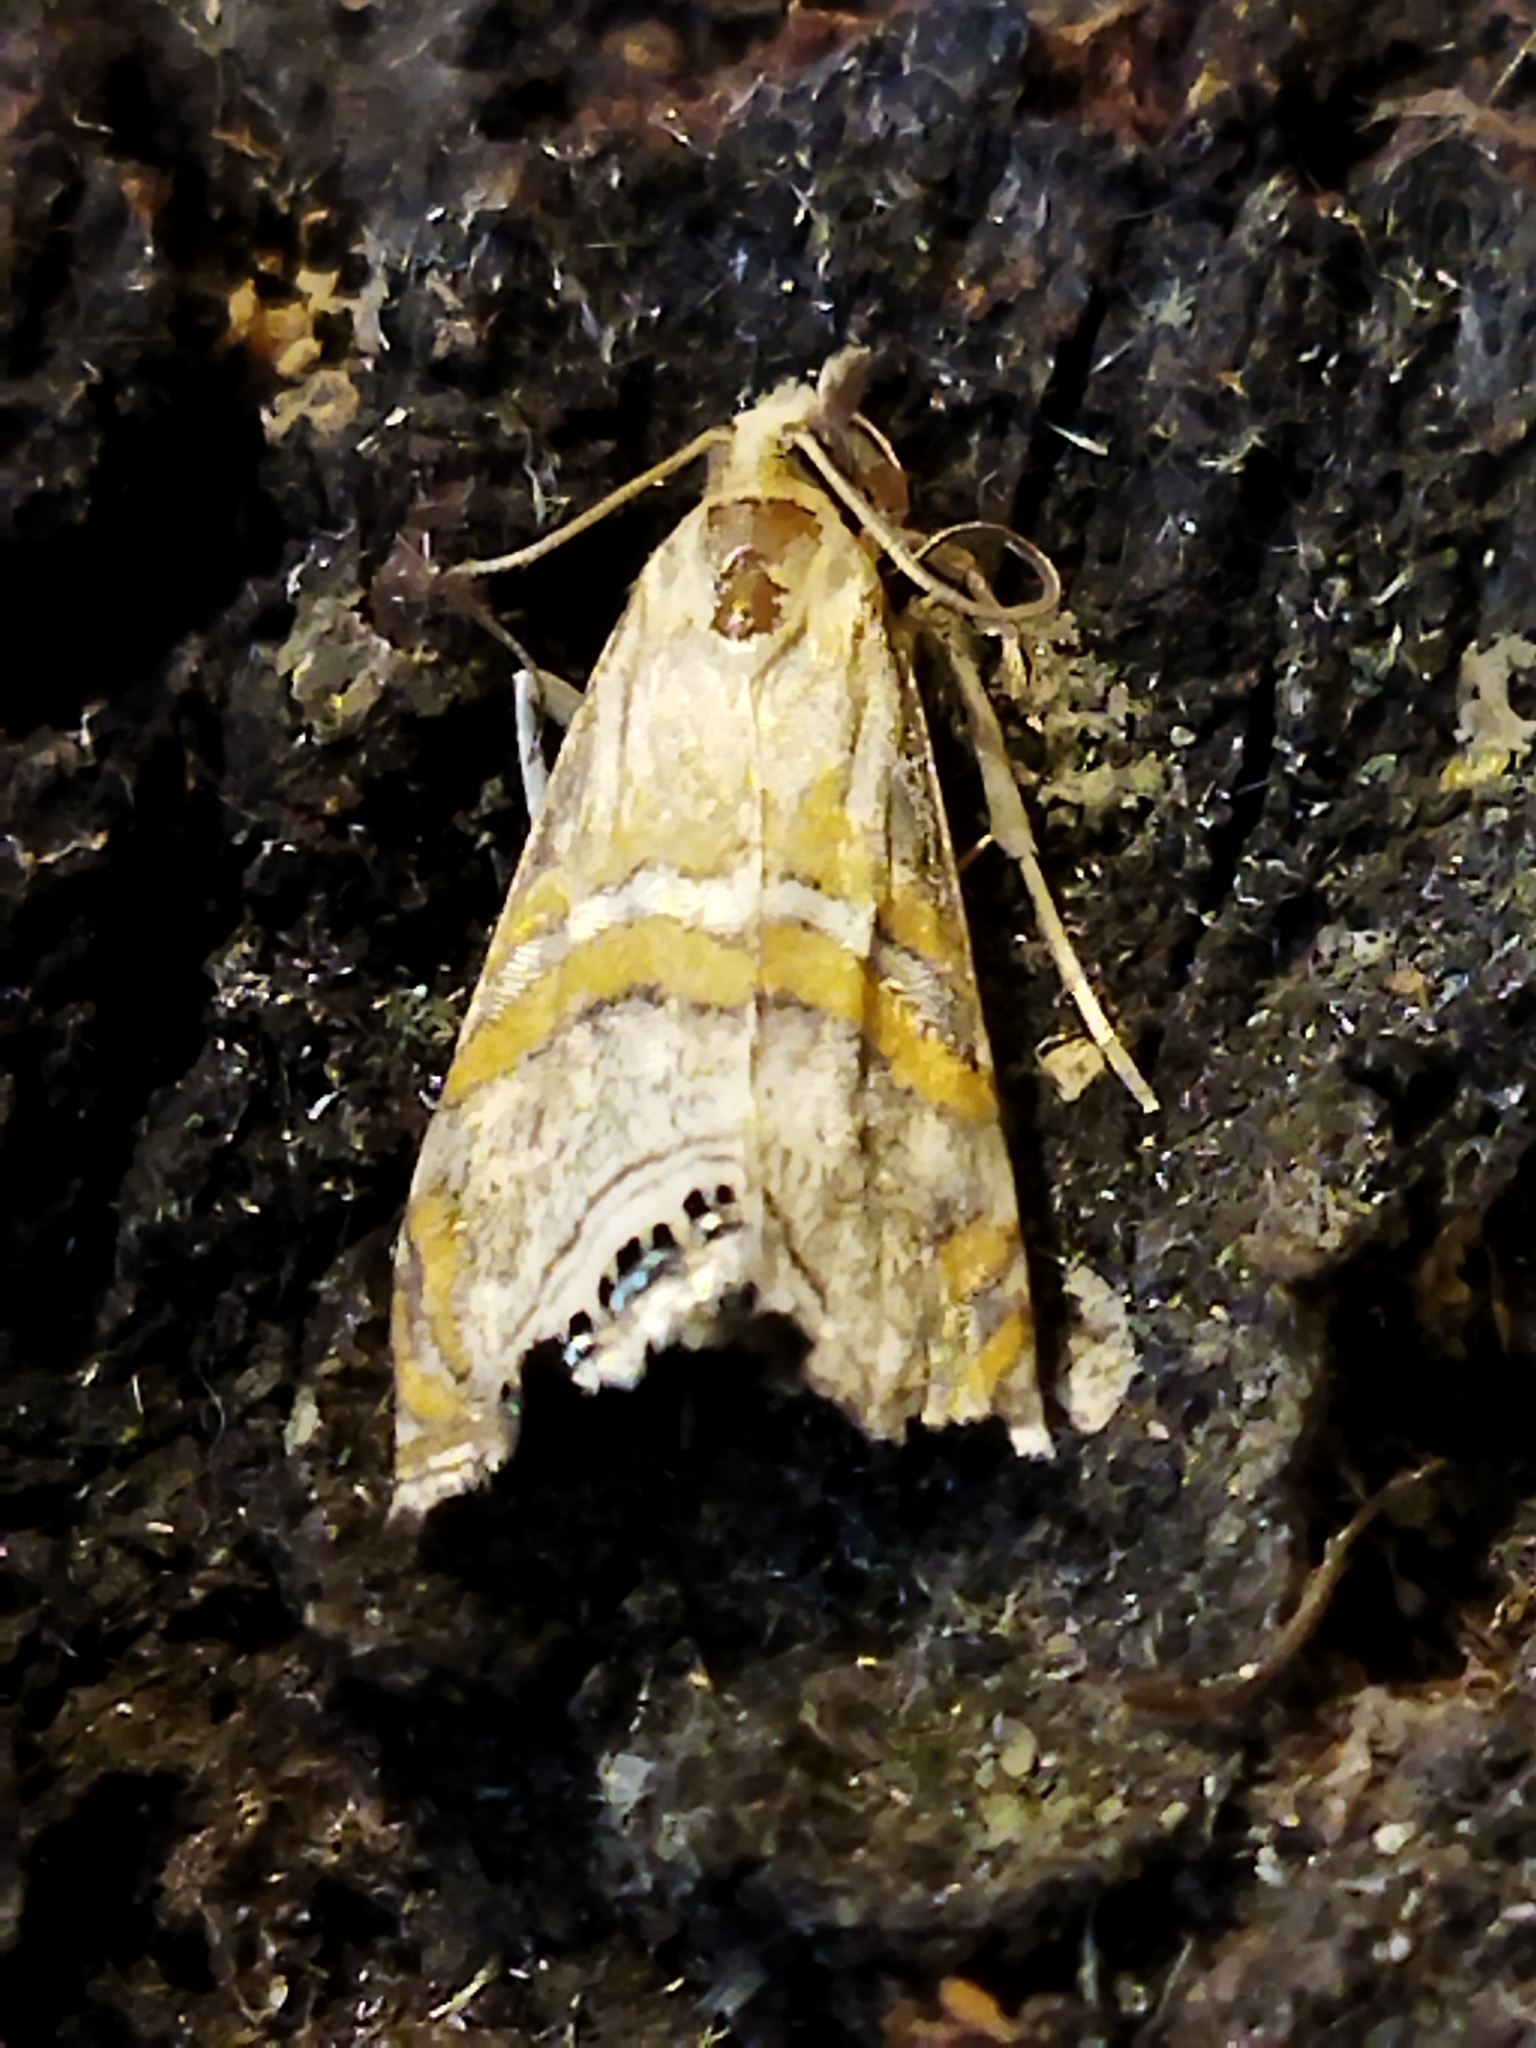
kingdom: Animalia
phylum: Arthropoda
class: Insecta
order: Lepidoptera
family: Crambidae
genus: Euchromius
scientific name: Euchromius bella
